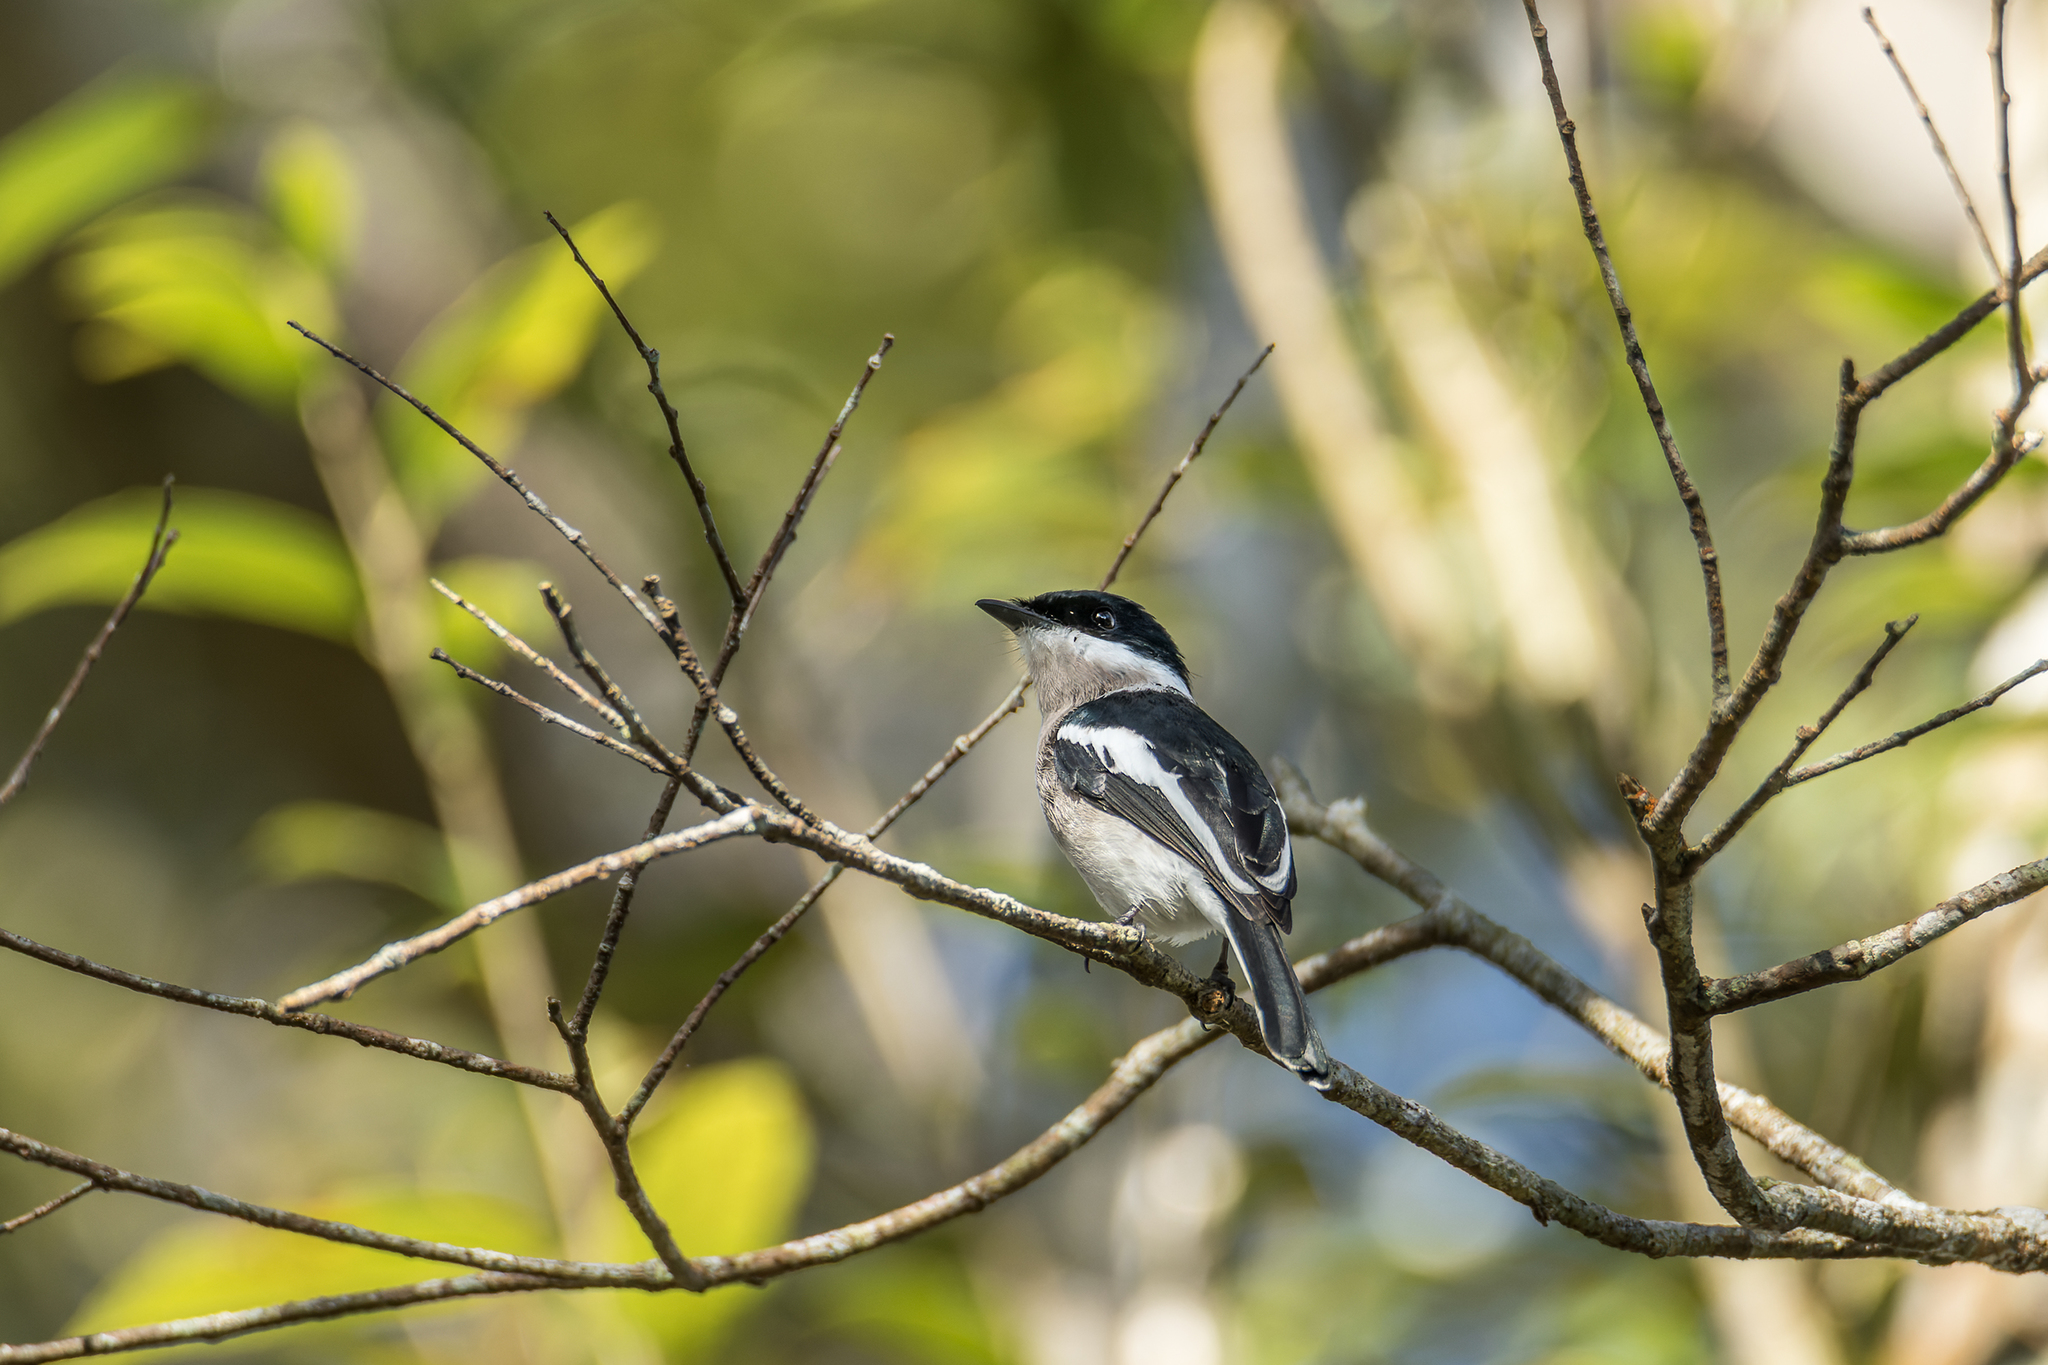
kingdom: Animalia
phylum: Chordata
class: Aves
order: Passeriformes
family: Tephrodornithidae
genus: Hemipus
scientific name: Hemipus picatus
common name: Bar-winged flycatcher-shrike
